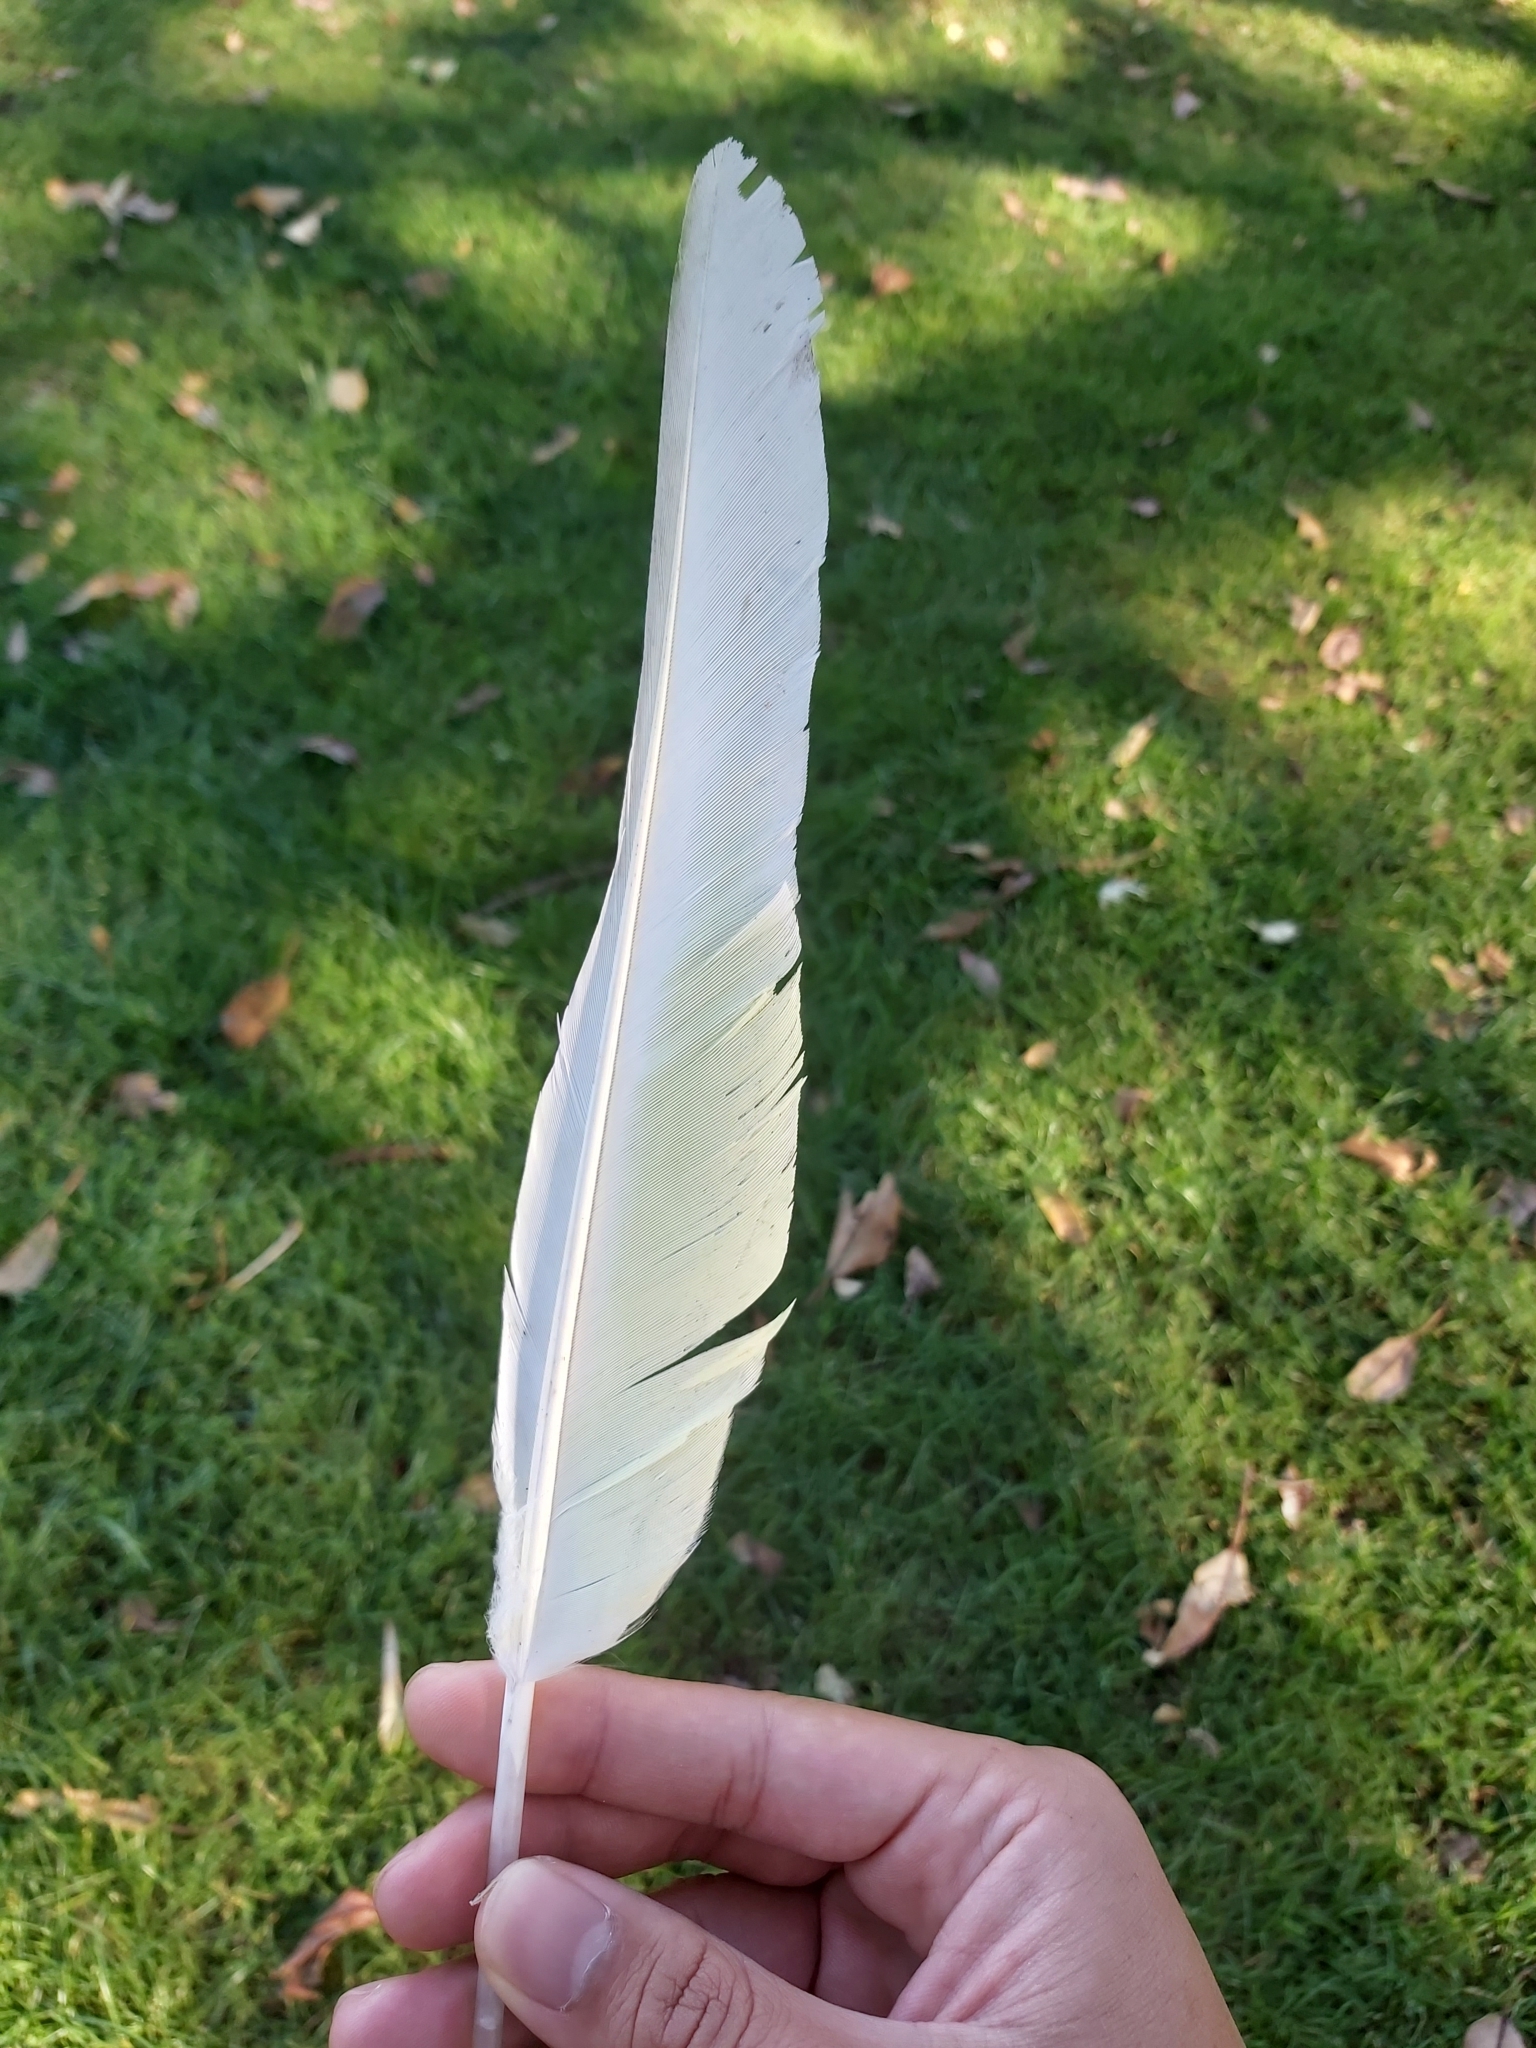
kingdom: Animalia
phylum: Chordata
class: Aves
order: Psittaciformes
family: Psittacidae
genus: Cacatua
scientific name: Cacatua galerita
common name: Sulphur-crested cockatoo
